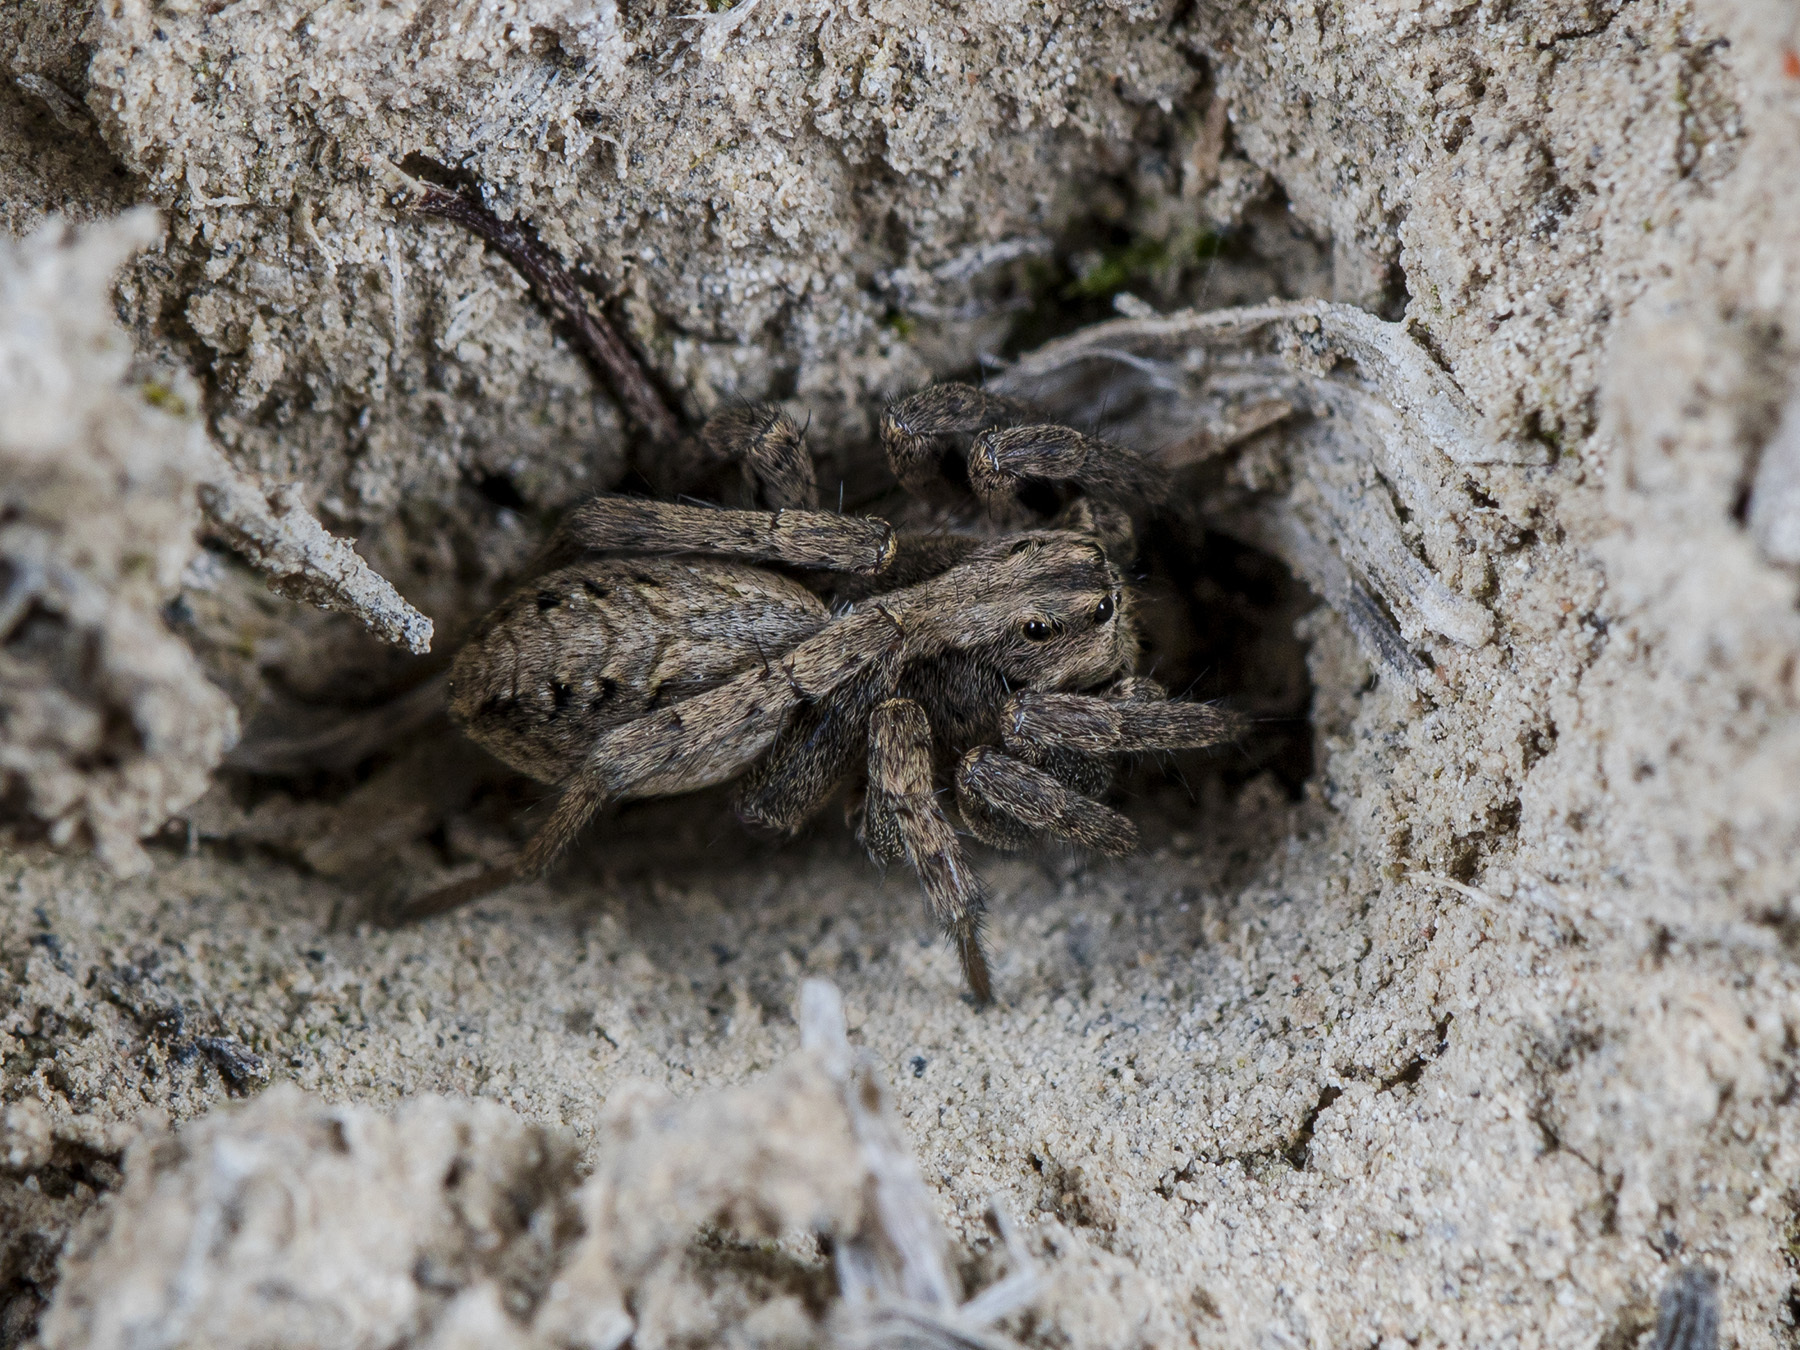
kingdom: Animalia
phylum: Arthropoda
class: Arachnida
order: Araneae
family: Lycosidae
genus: Alopecosa
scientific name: Alopecosa cursor
